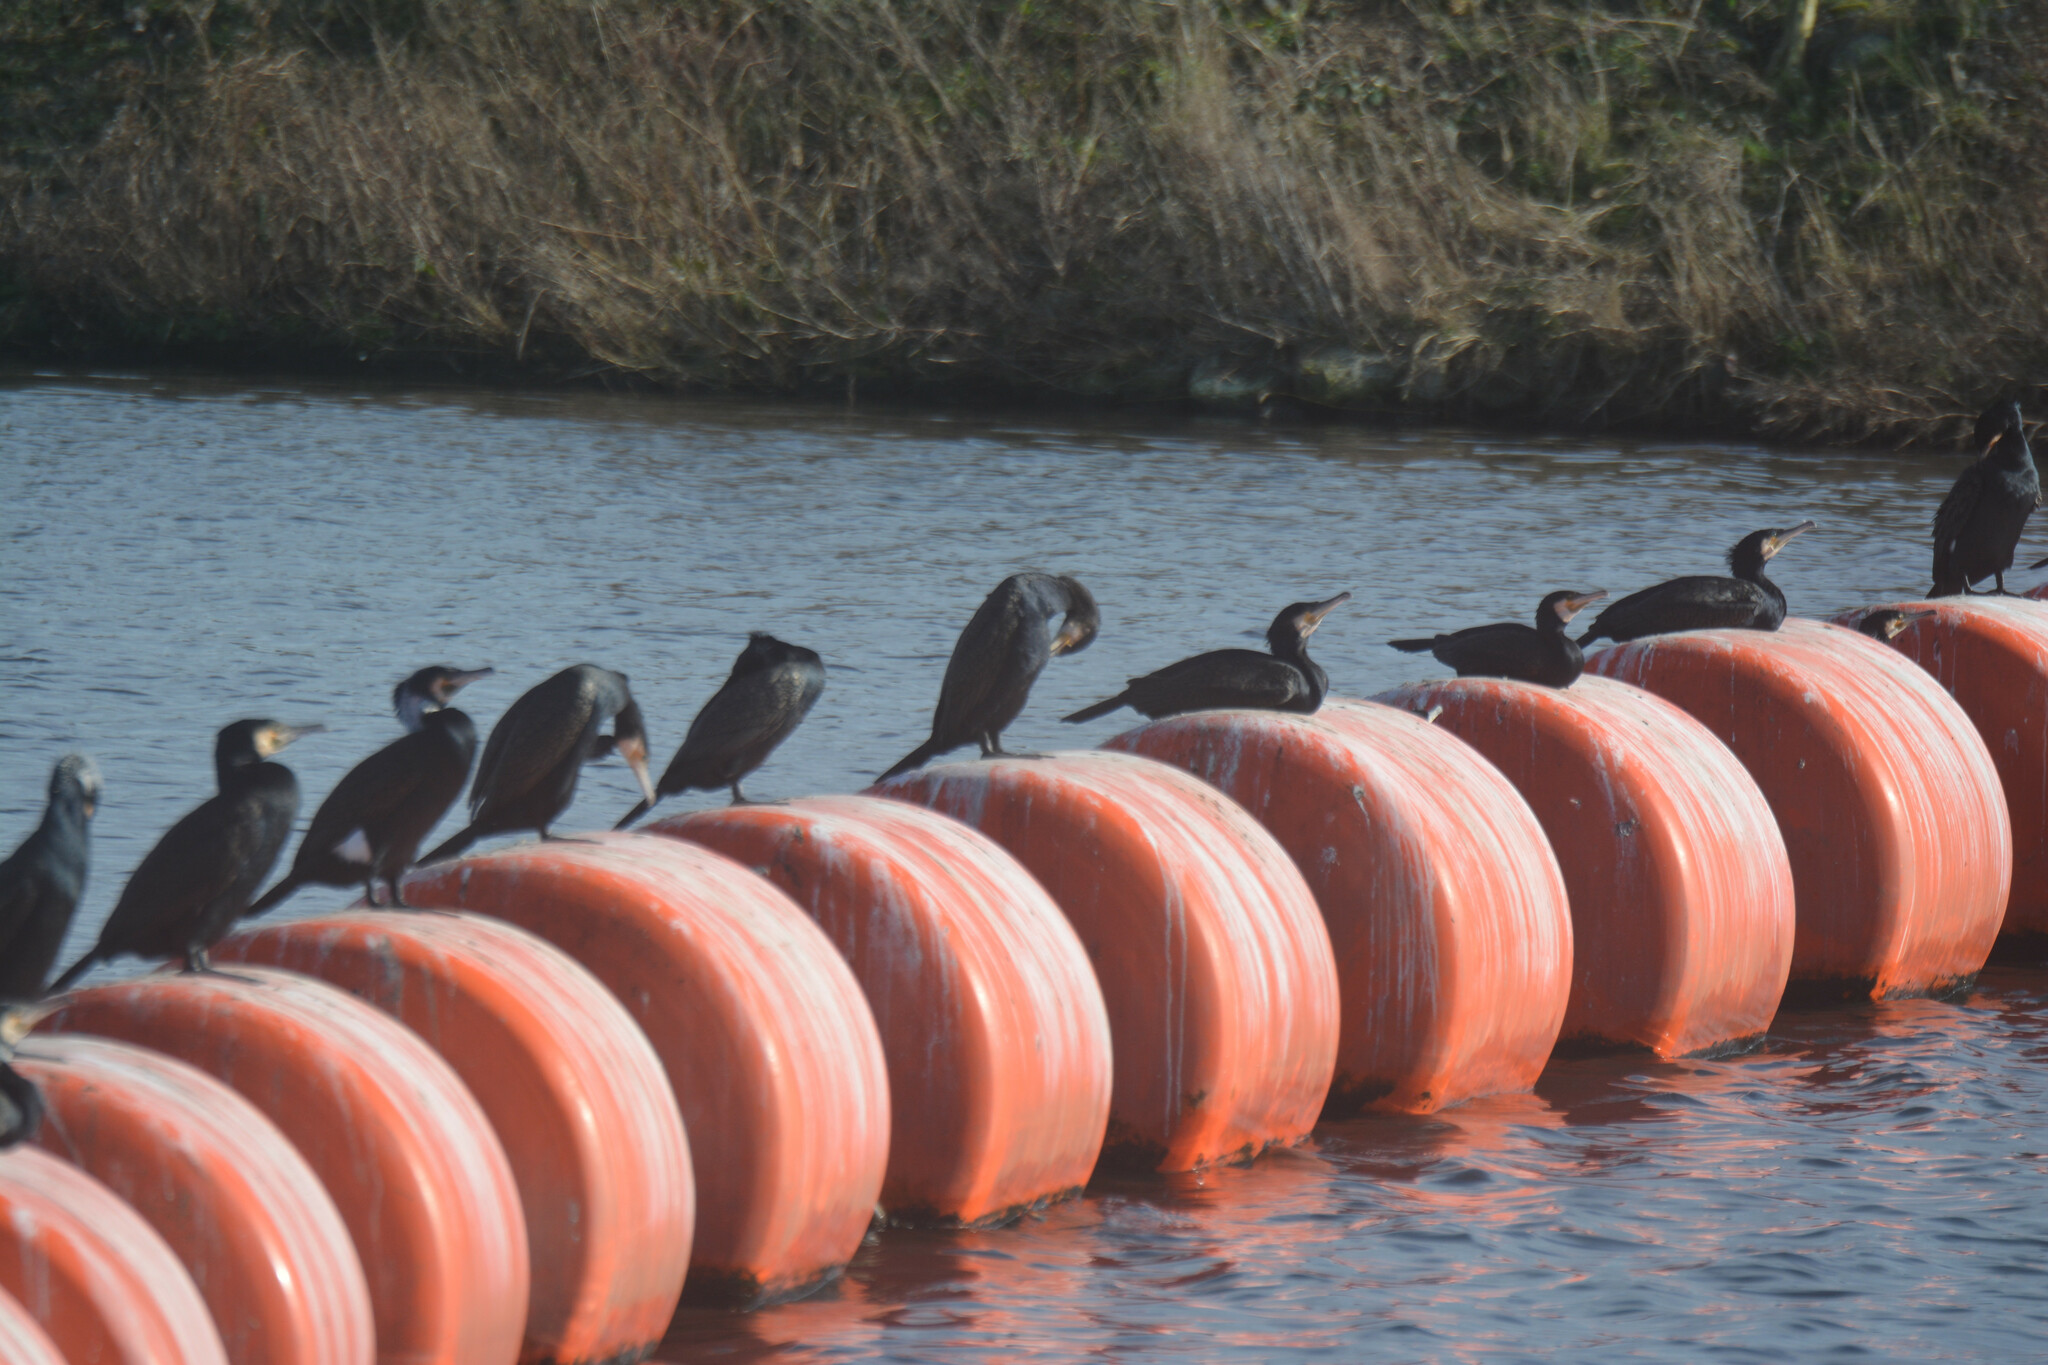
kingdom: Animalia
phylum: Chordata
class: Aves
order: Suliformes
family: Phalacrocoracidae
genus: Phalacrocorax
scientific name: Phalacrocorax carbo
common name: Great cormorant
